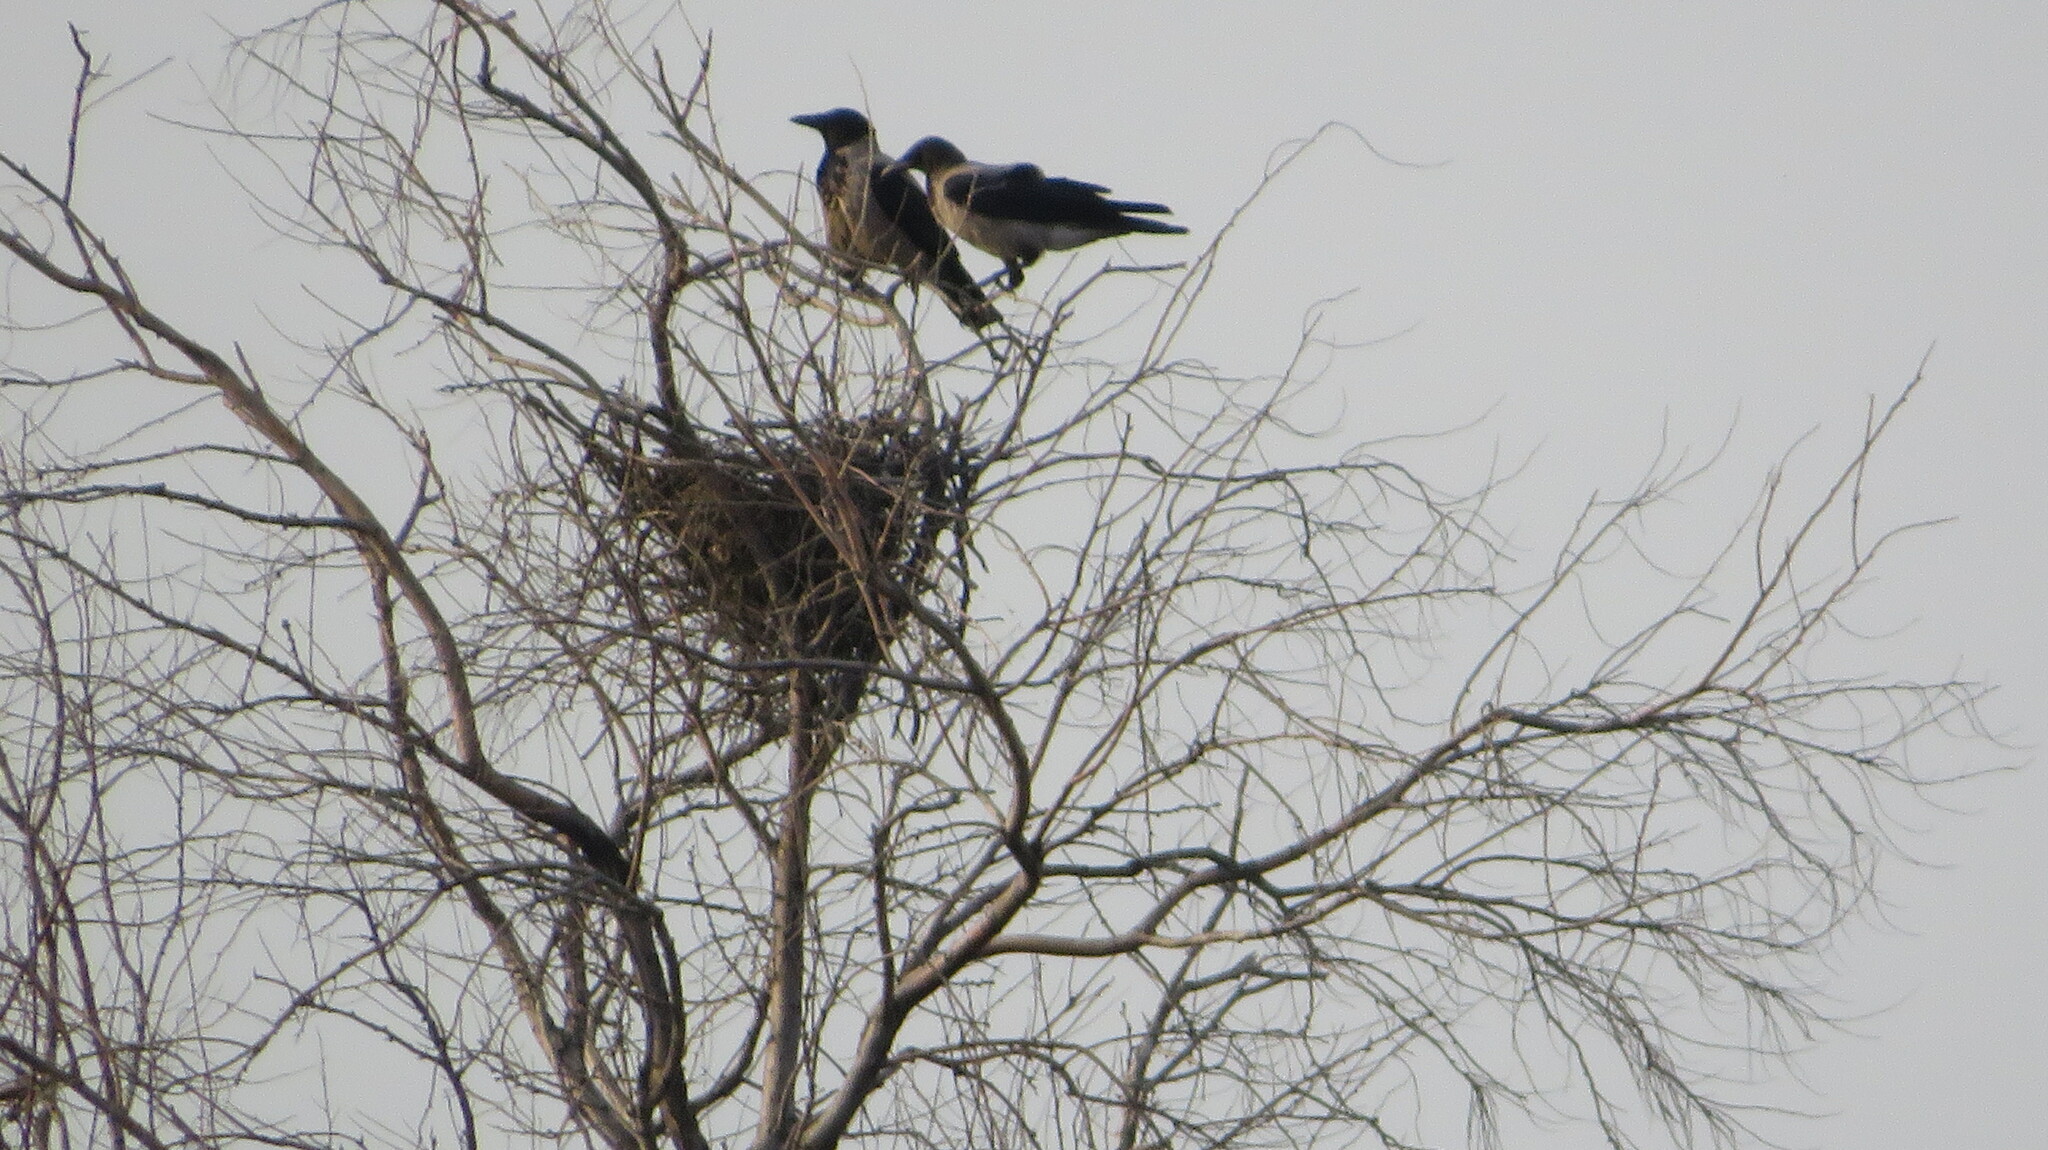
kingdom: Animalia
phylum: Chordata
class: Aves
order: Passeriformes
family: Corvidae
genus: Corvus
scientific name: Corvus cornix
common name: Hooded crow
